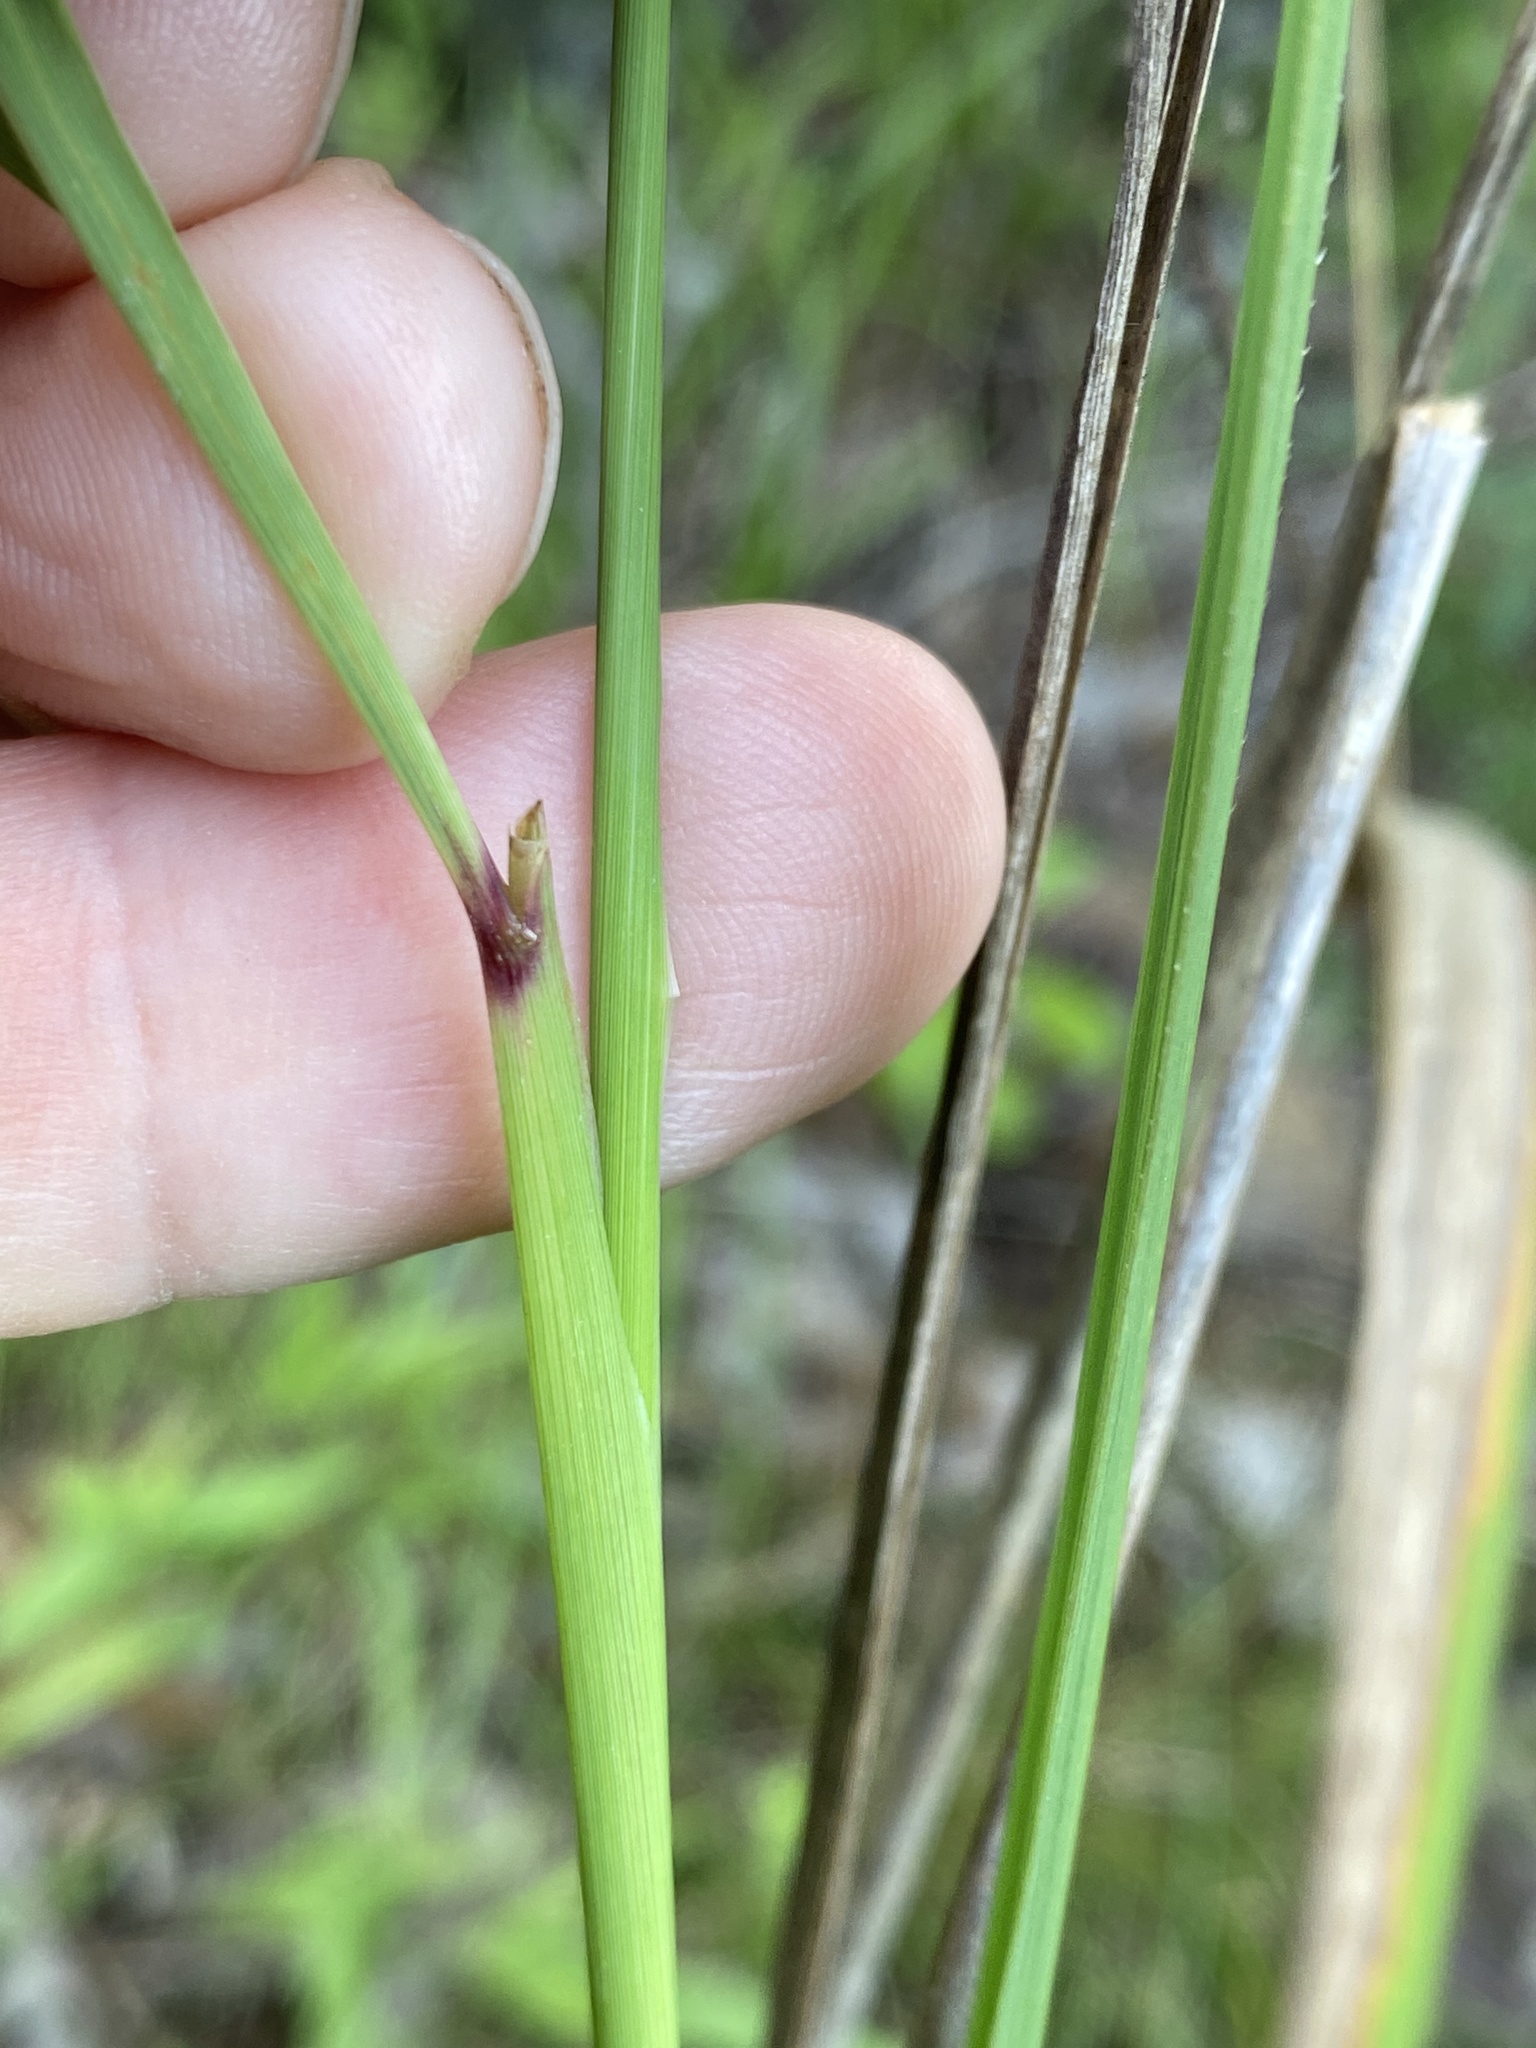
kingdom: Plantae
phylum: Tracheophyta
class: Liliopsida
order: Poales
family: Poaceae
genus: Sorghastrum
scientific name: Sorghastrum nutans
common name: Indian grass
